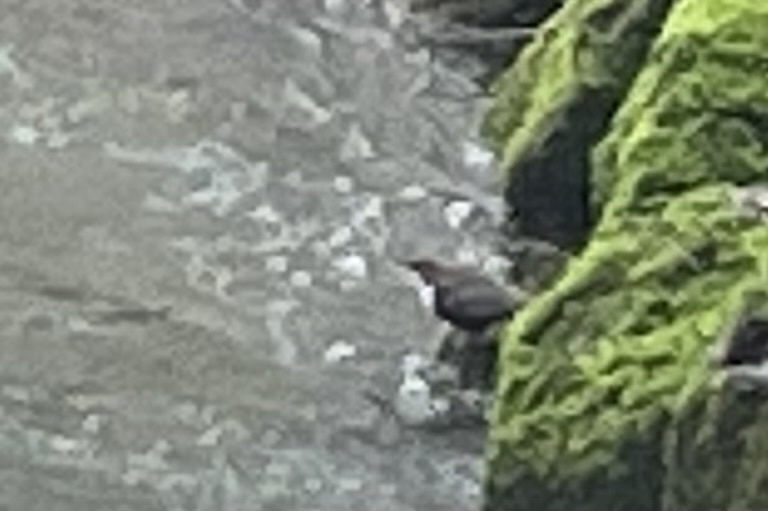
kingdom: Animalia
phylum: Chordata
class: Aves
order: Passeriformes
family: Cinclidae
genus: Cinclus
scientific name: Cinclus cinclus
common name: White-throated dipper
